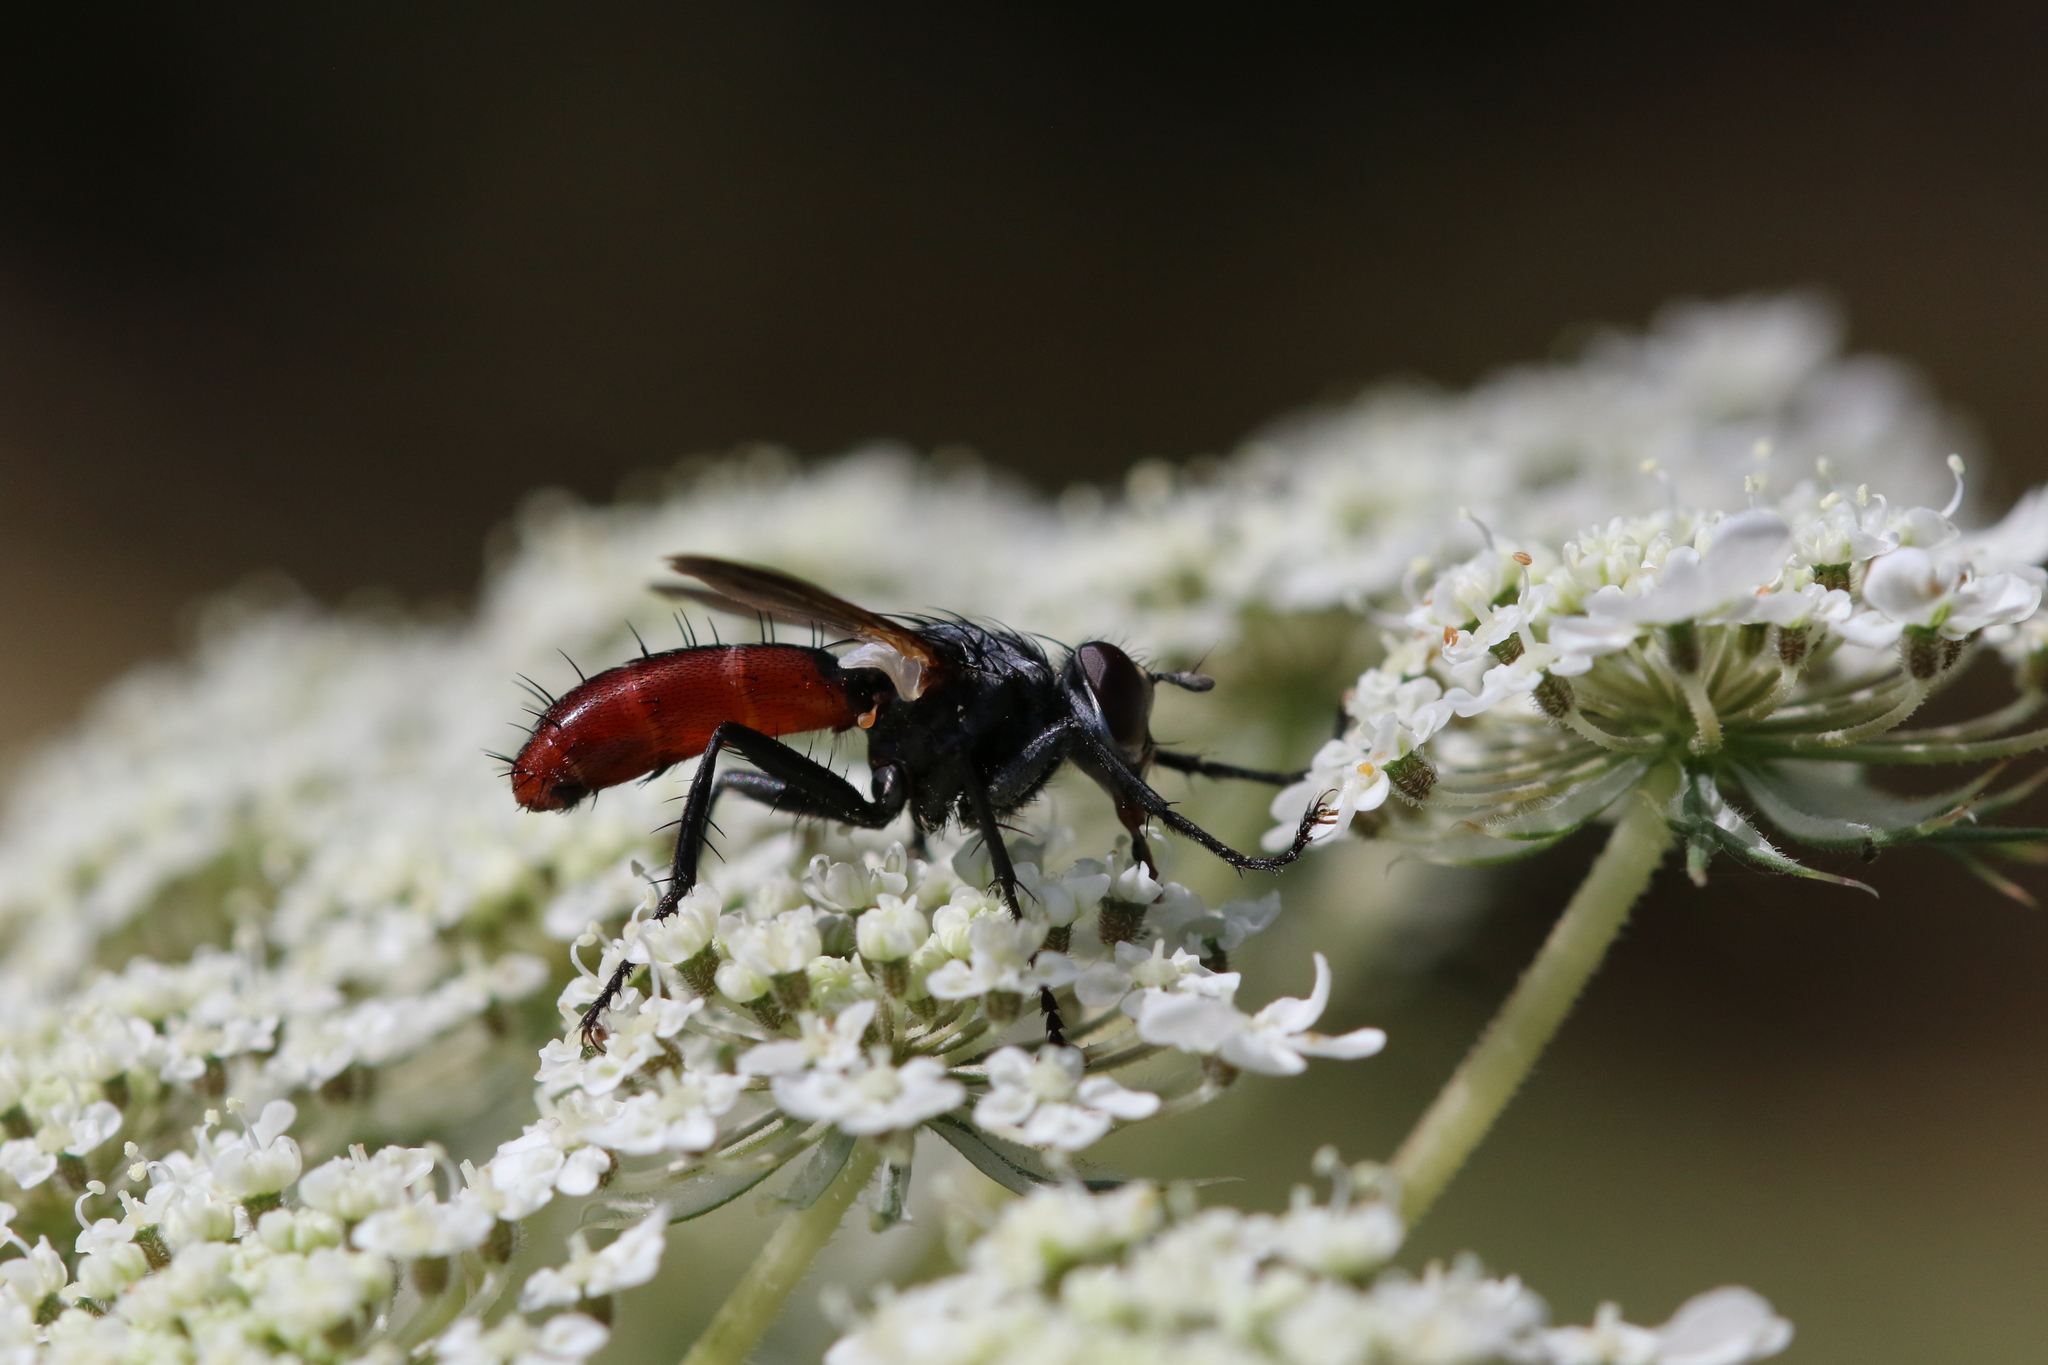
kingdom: Animalia
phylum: Arthropoda
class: Insecta
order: Diptera
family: Tachinidae
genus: Cylindromyia
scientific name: Cylindromyia bicolor
